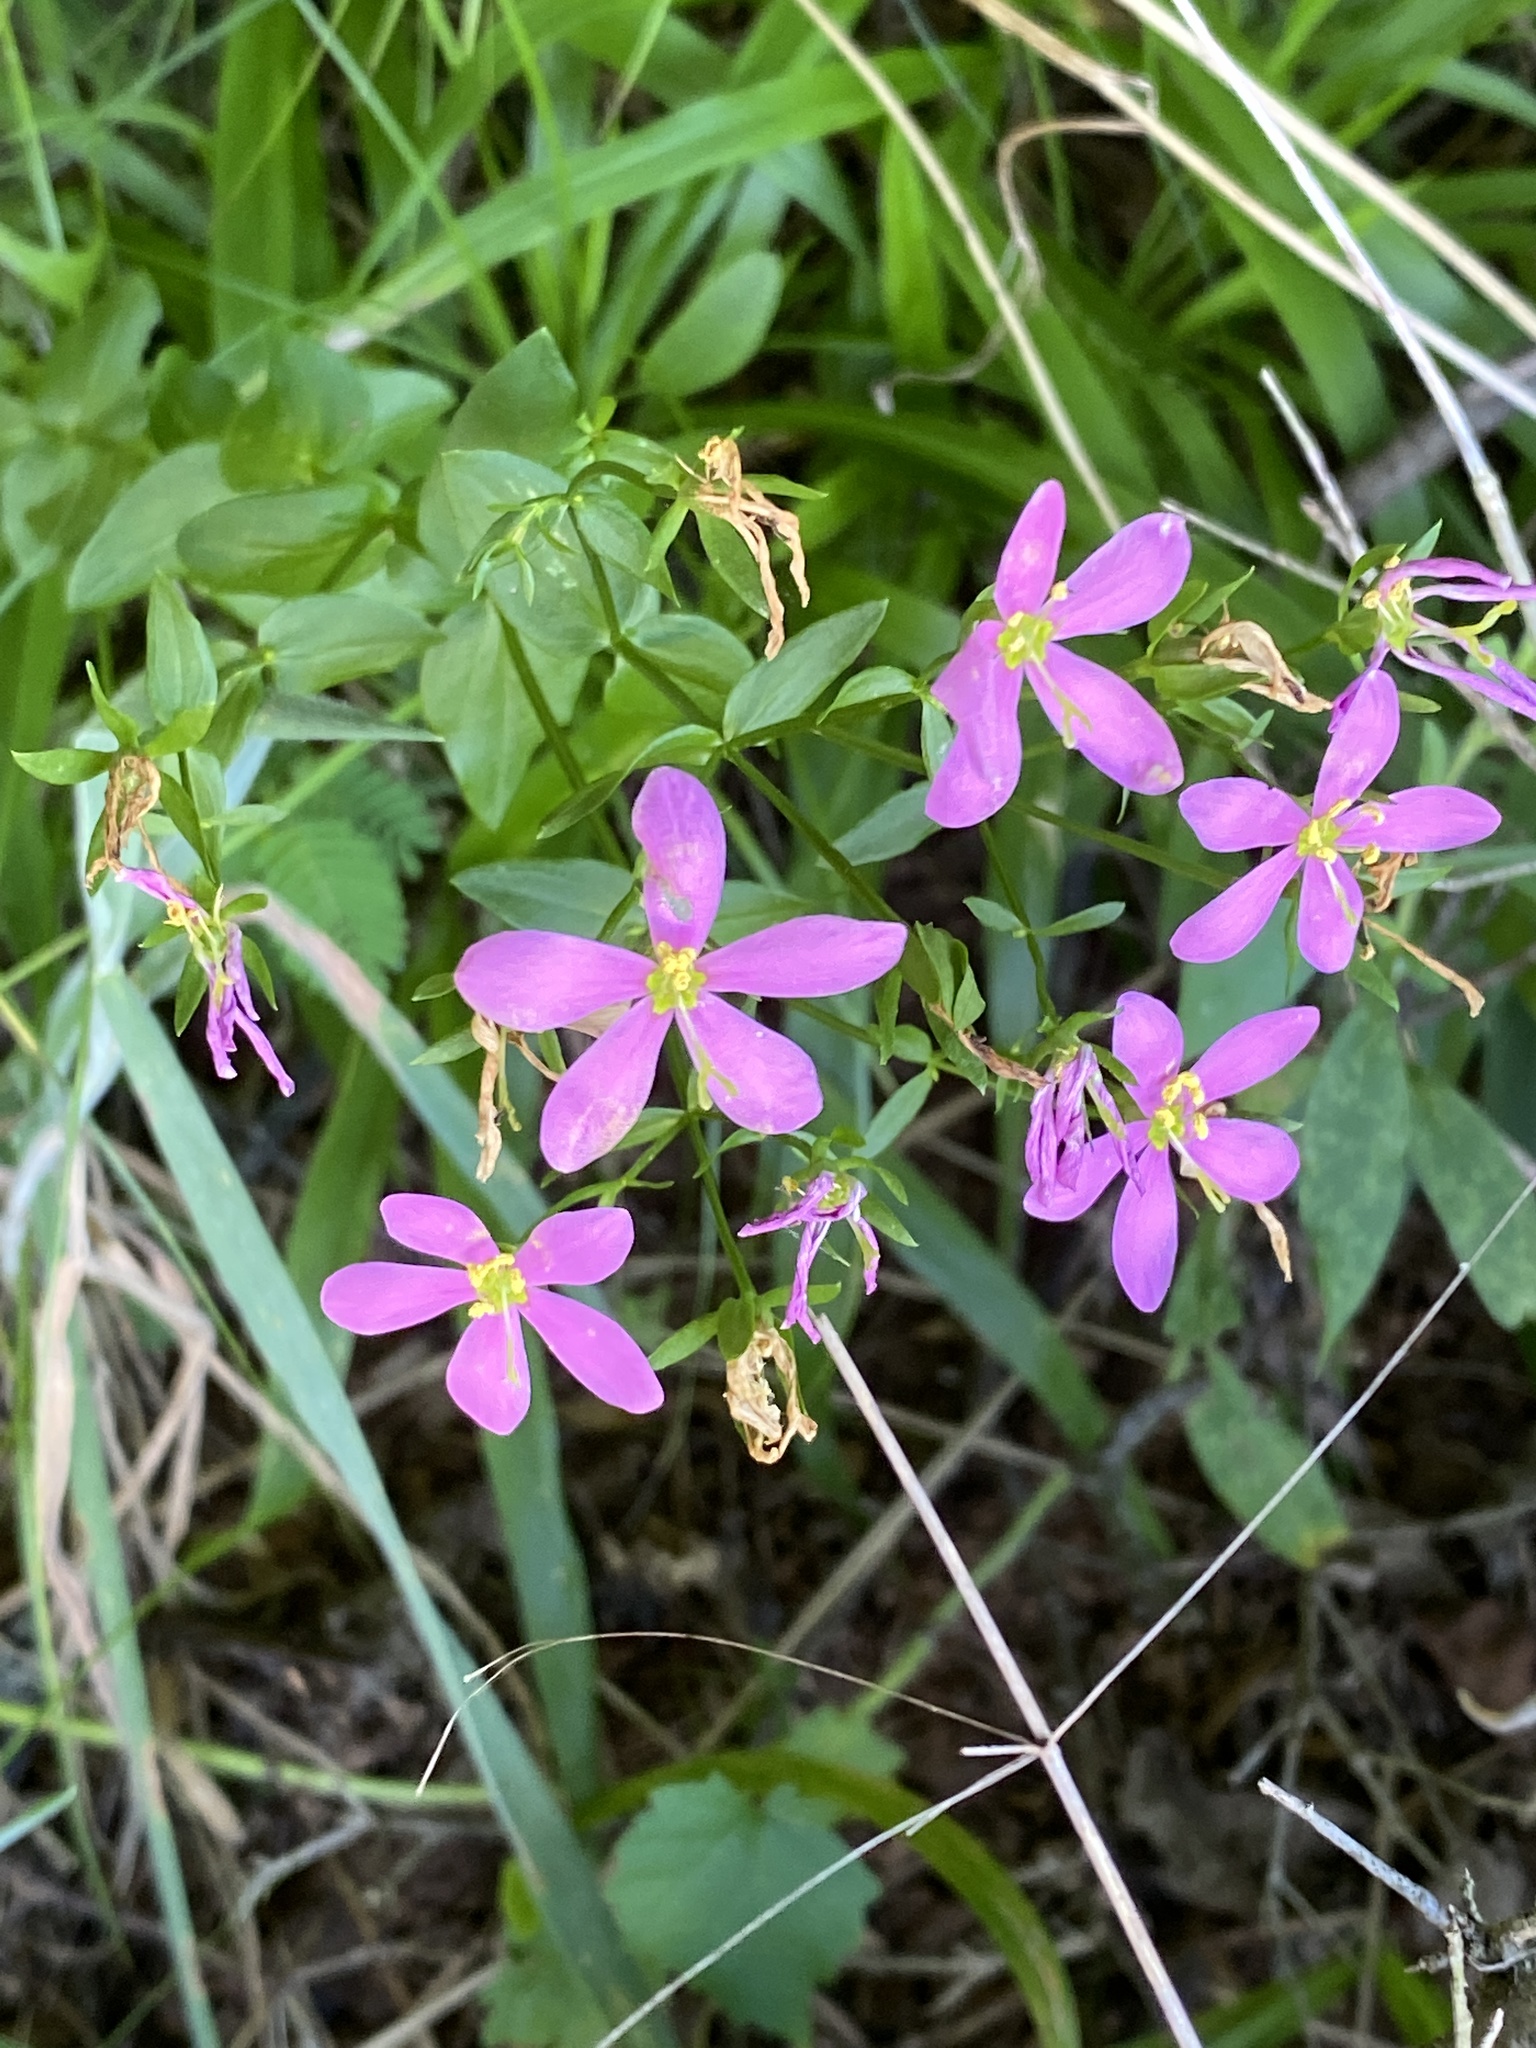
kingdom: Plantae
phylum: Tracheophyta
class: Magnoliopsida
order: Gentianales
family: Gentianaceae
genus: Sabatia
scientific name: Sabatia angularis
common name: Rose-pink
